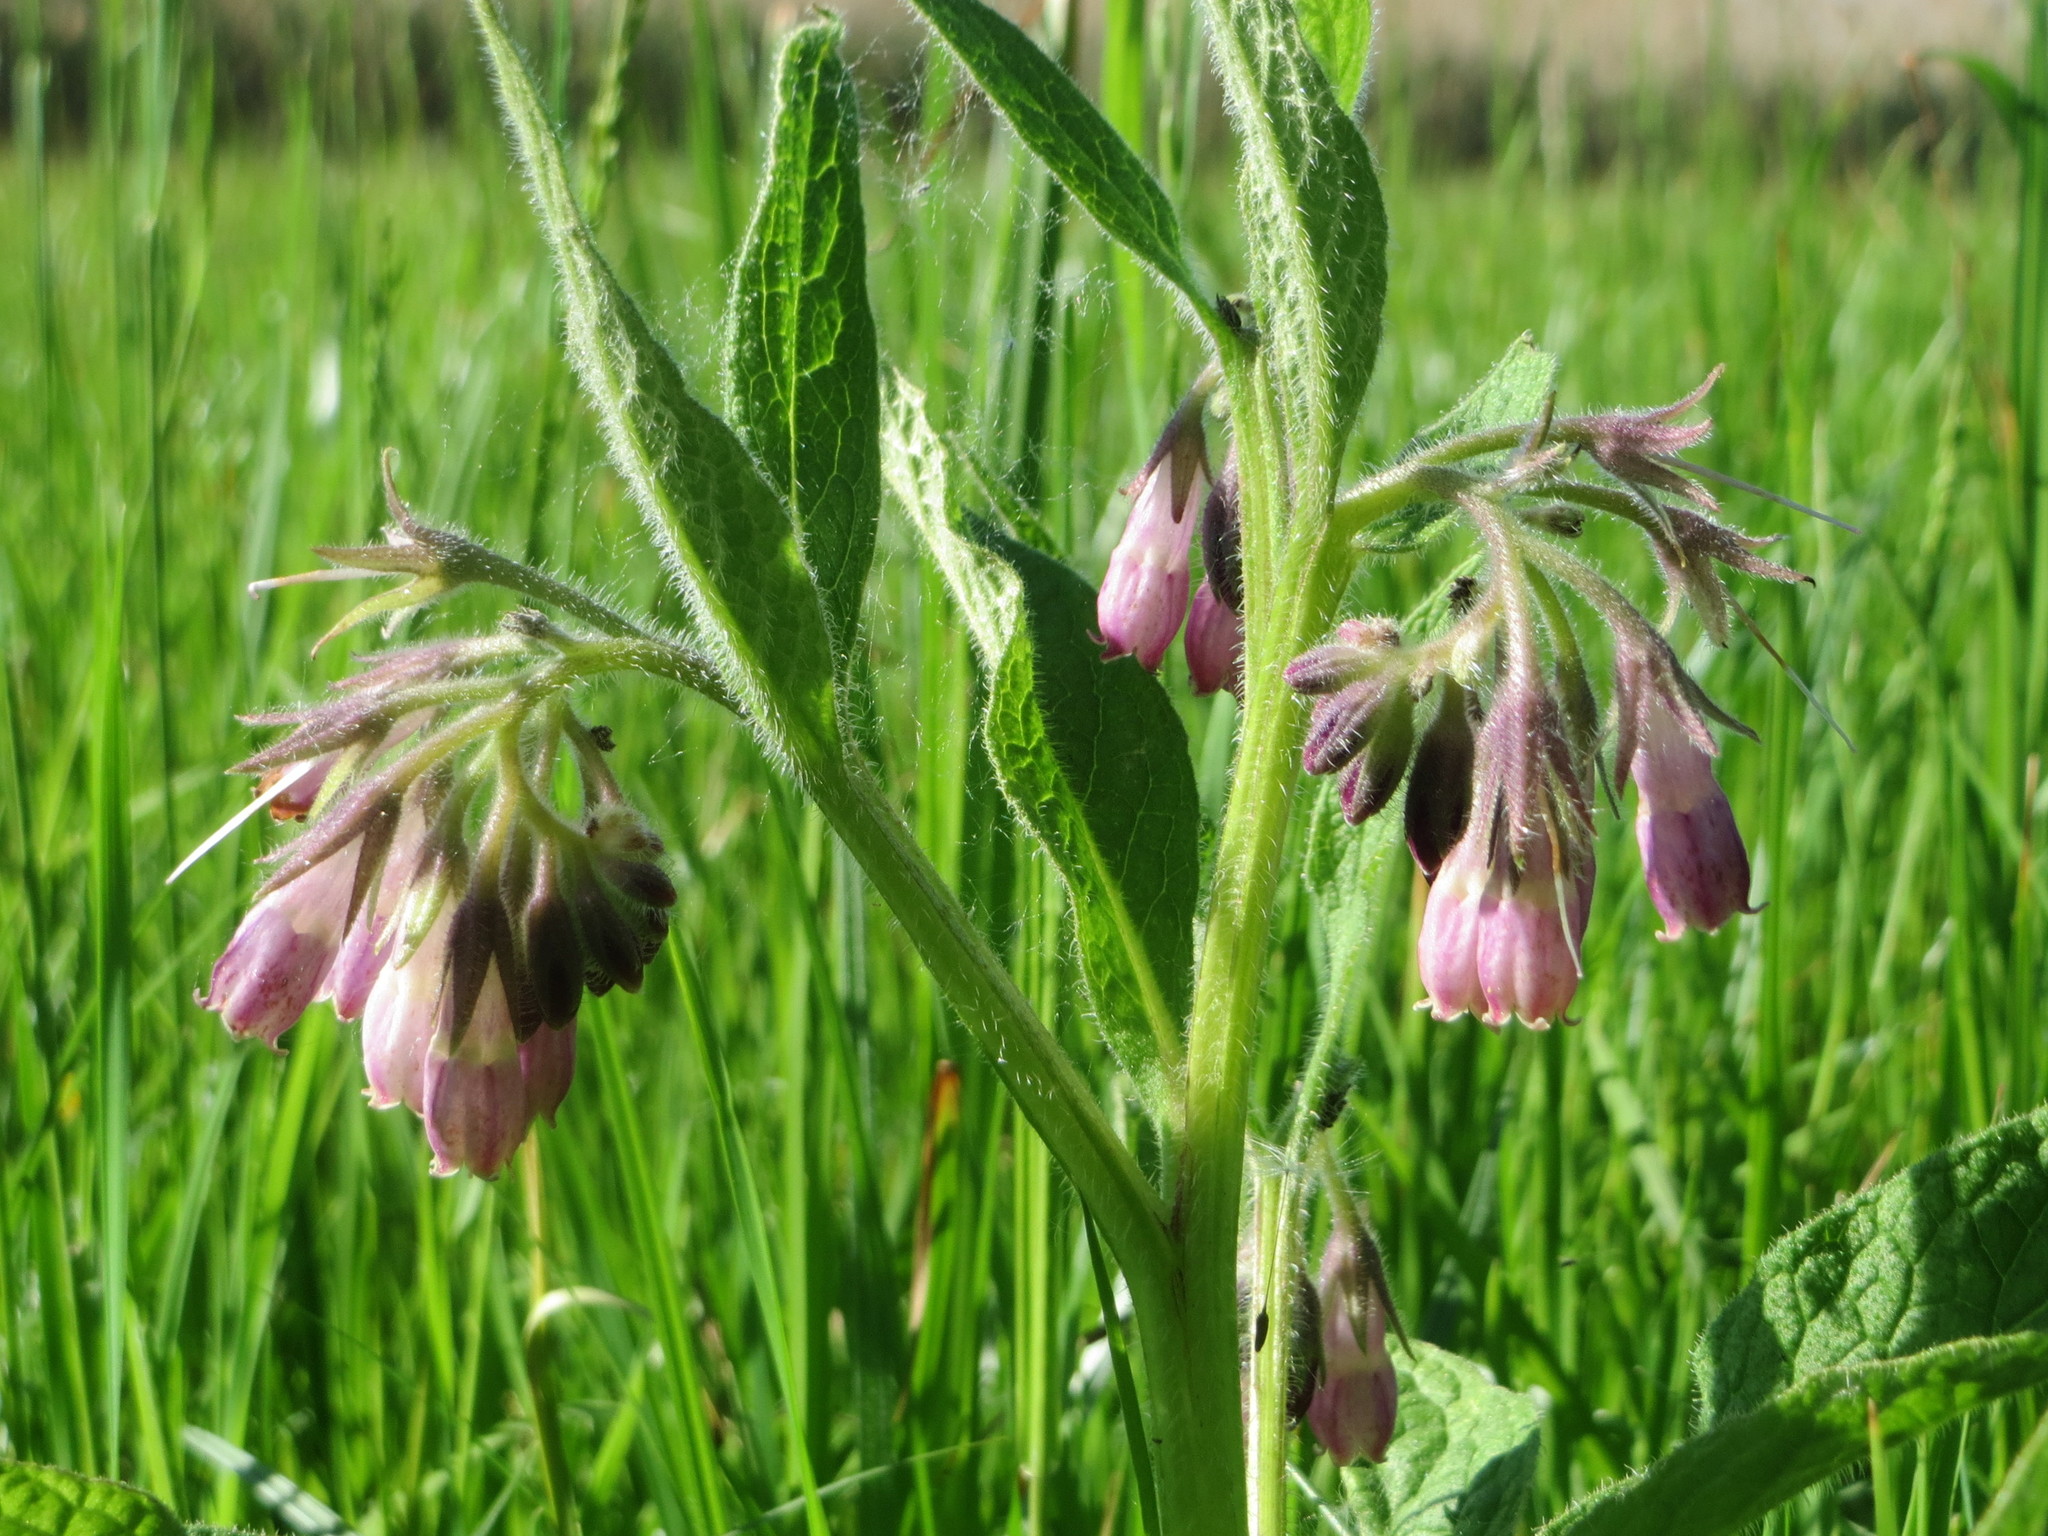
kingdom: Plantae
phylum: Tracheophyta
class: Magnoliopsida
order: Boraginales
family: Boraginaceae
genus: Symphytum
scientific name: Symphytum officinale
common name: Common comfrey
